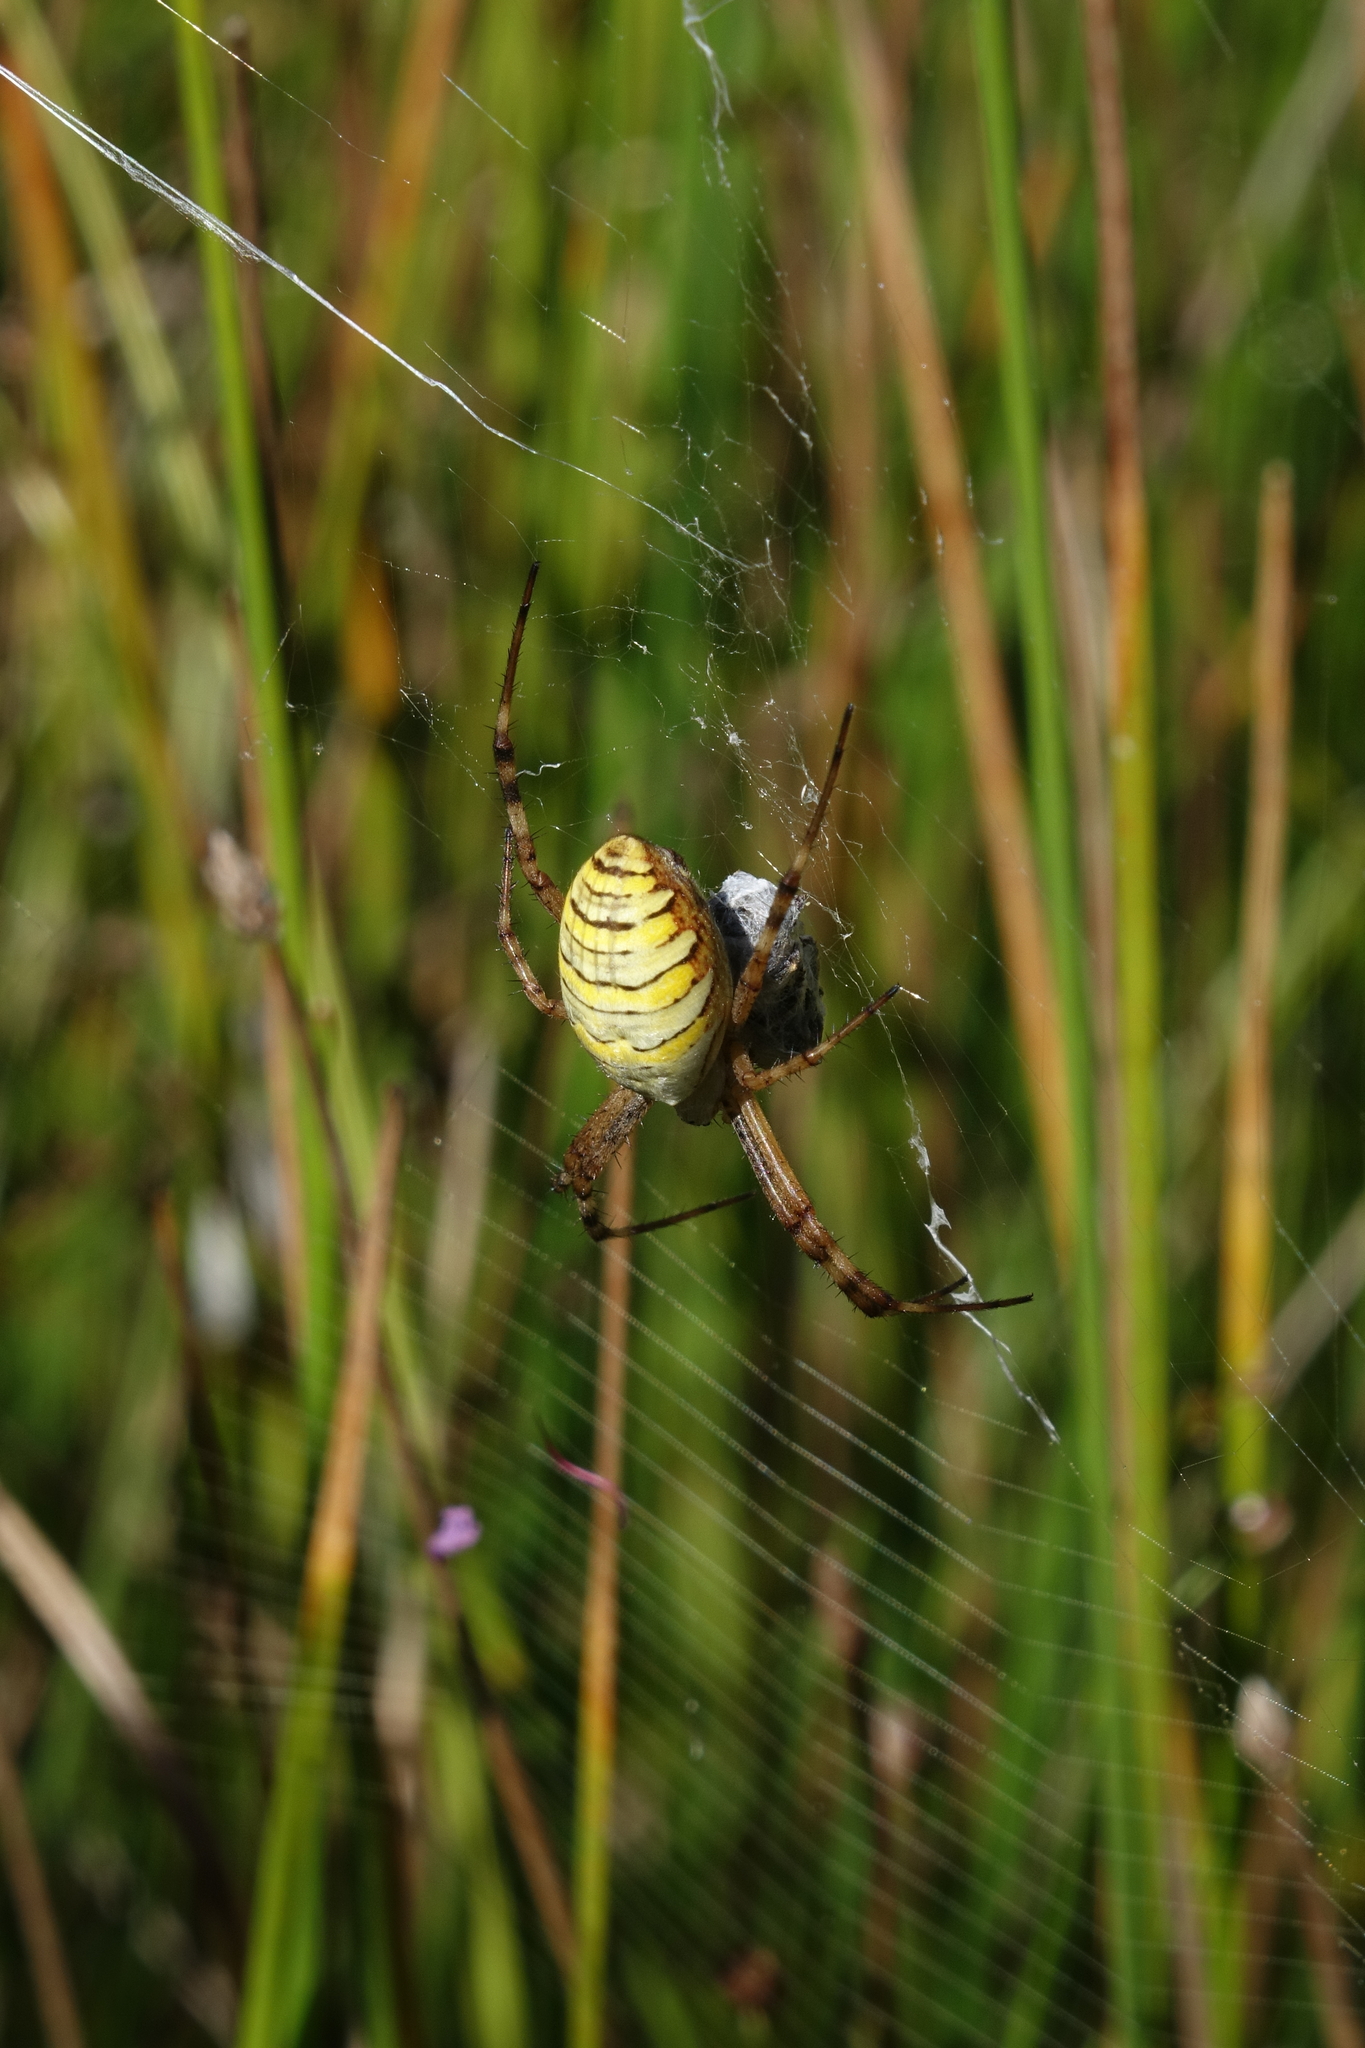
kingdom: Animalia
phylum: Arthropoda
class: Arachnida
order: Araneae
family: Araneidae
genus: Argiope
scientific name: Argiope bruennichi
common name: Wasp spider
